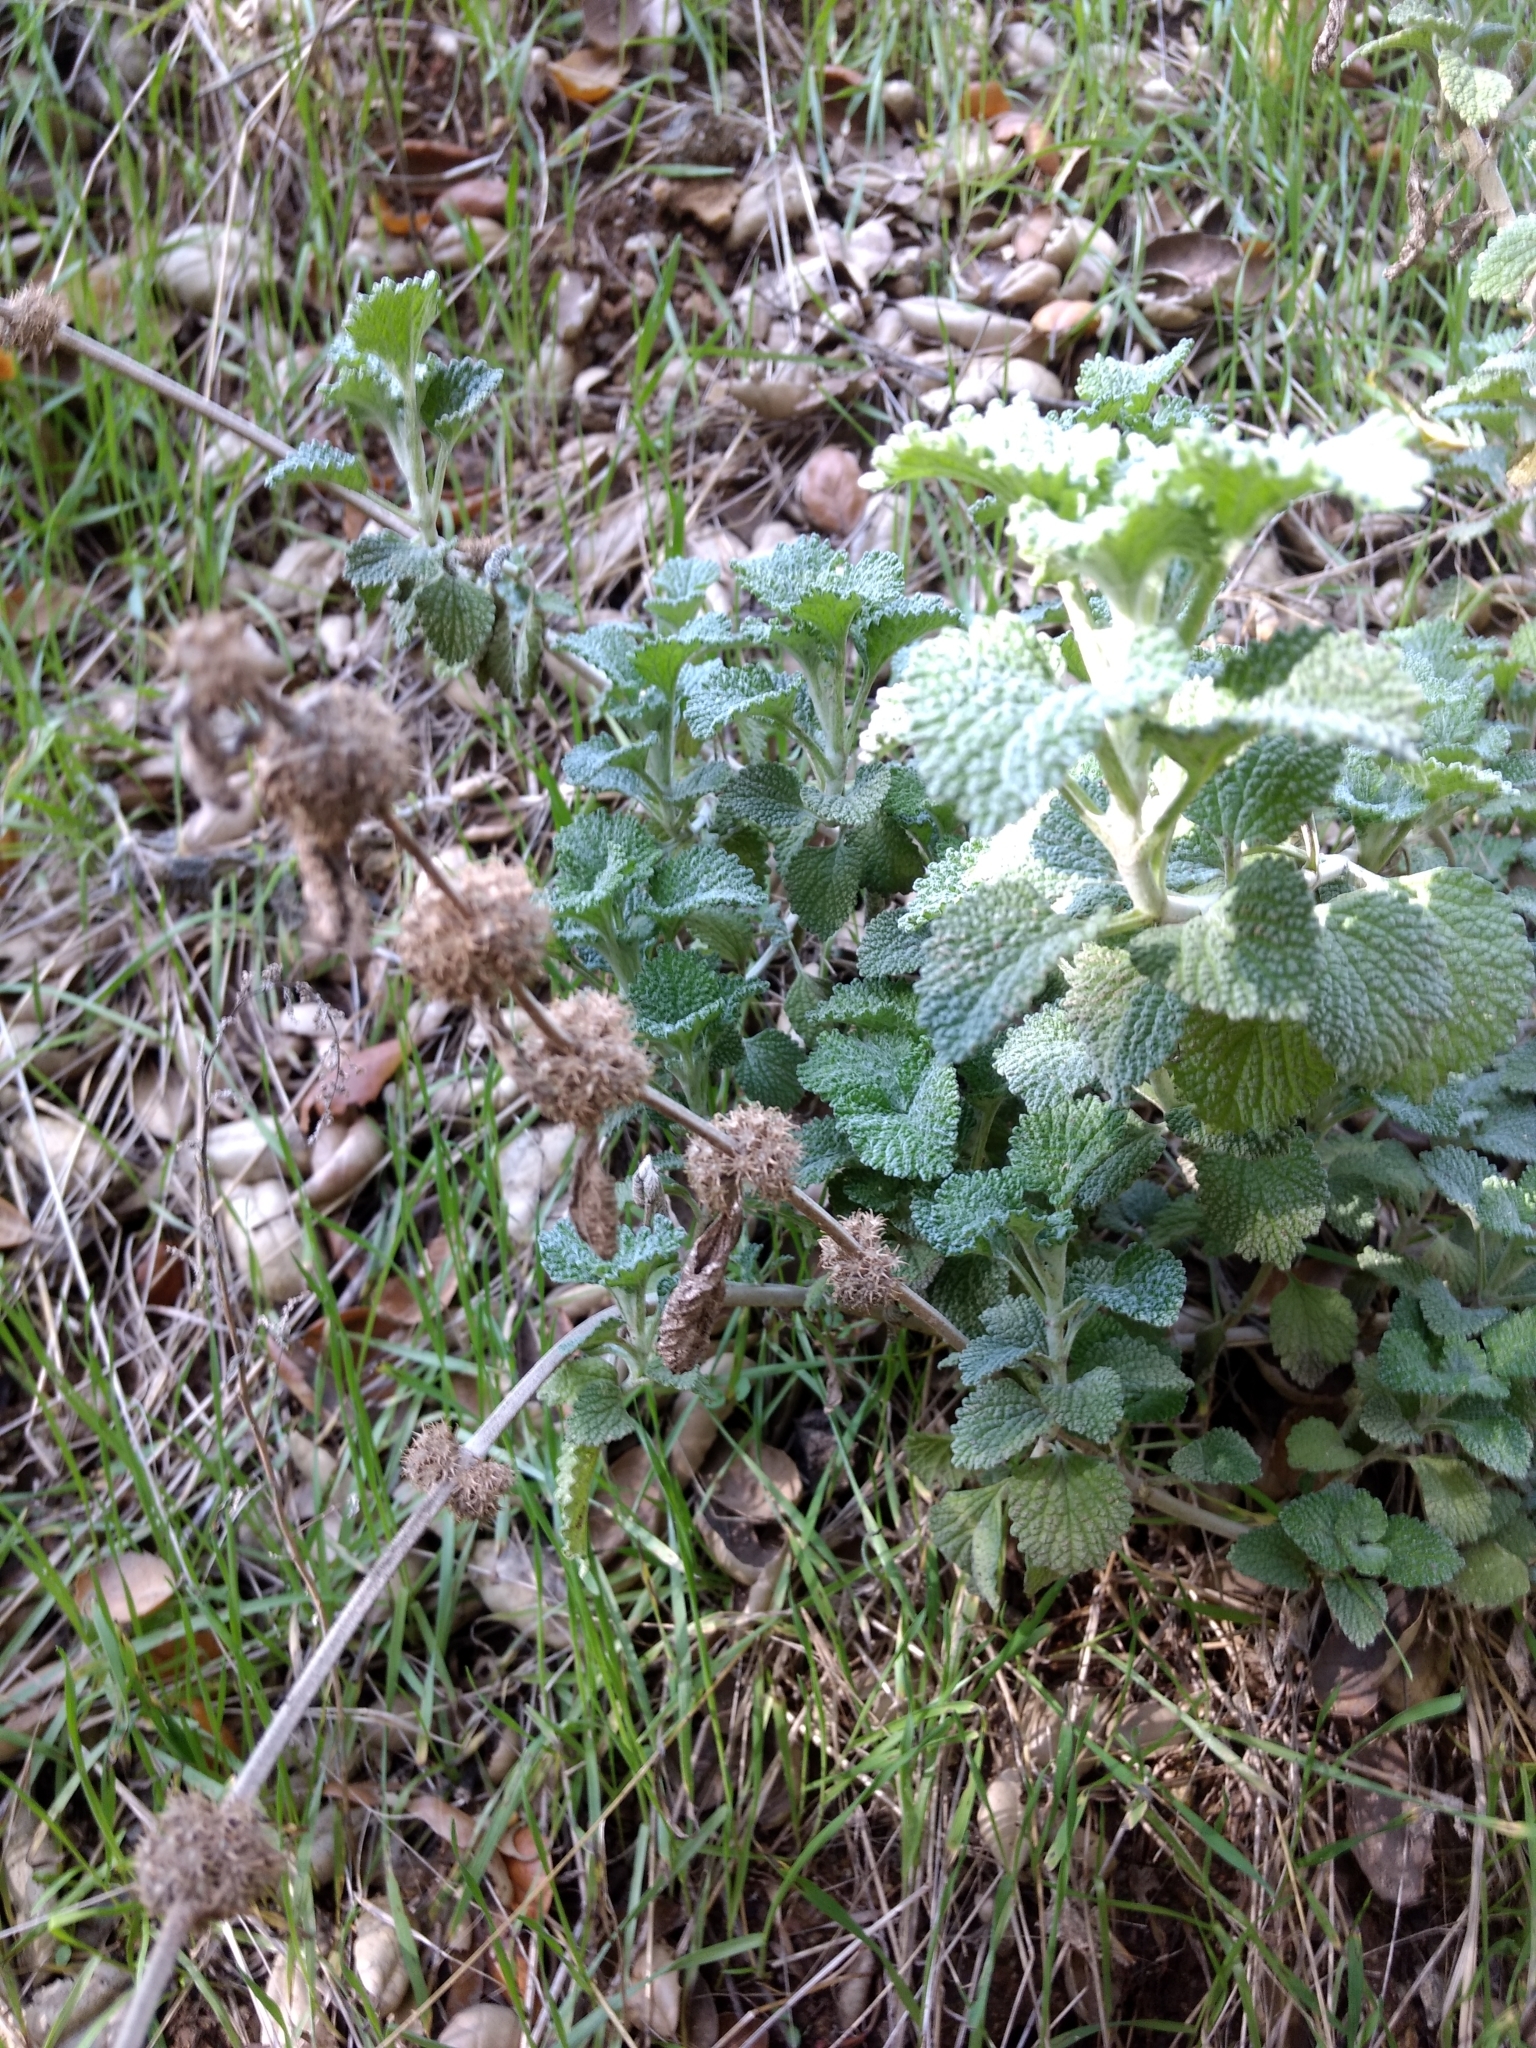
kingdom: Plantae
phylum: Tracheophyta
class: Magnoliopsida
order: Lamiales
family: Lamiaceae
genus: Marrubium
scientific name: Marrubium vulgare
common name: Horehound
